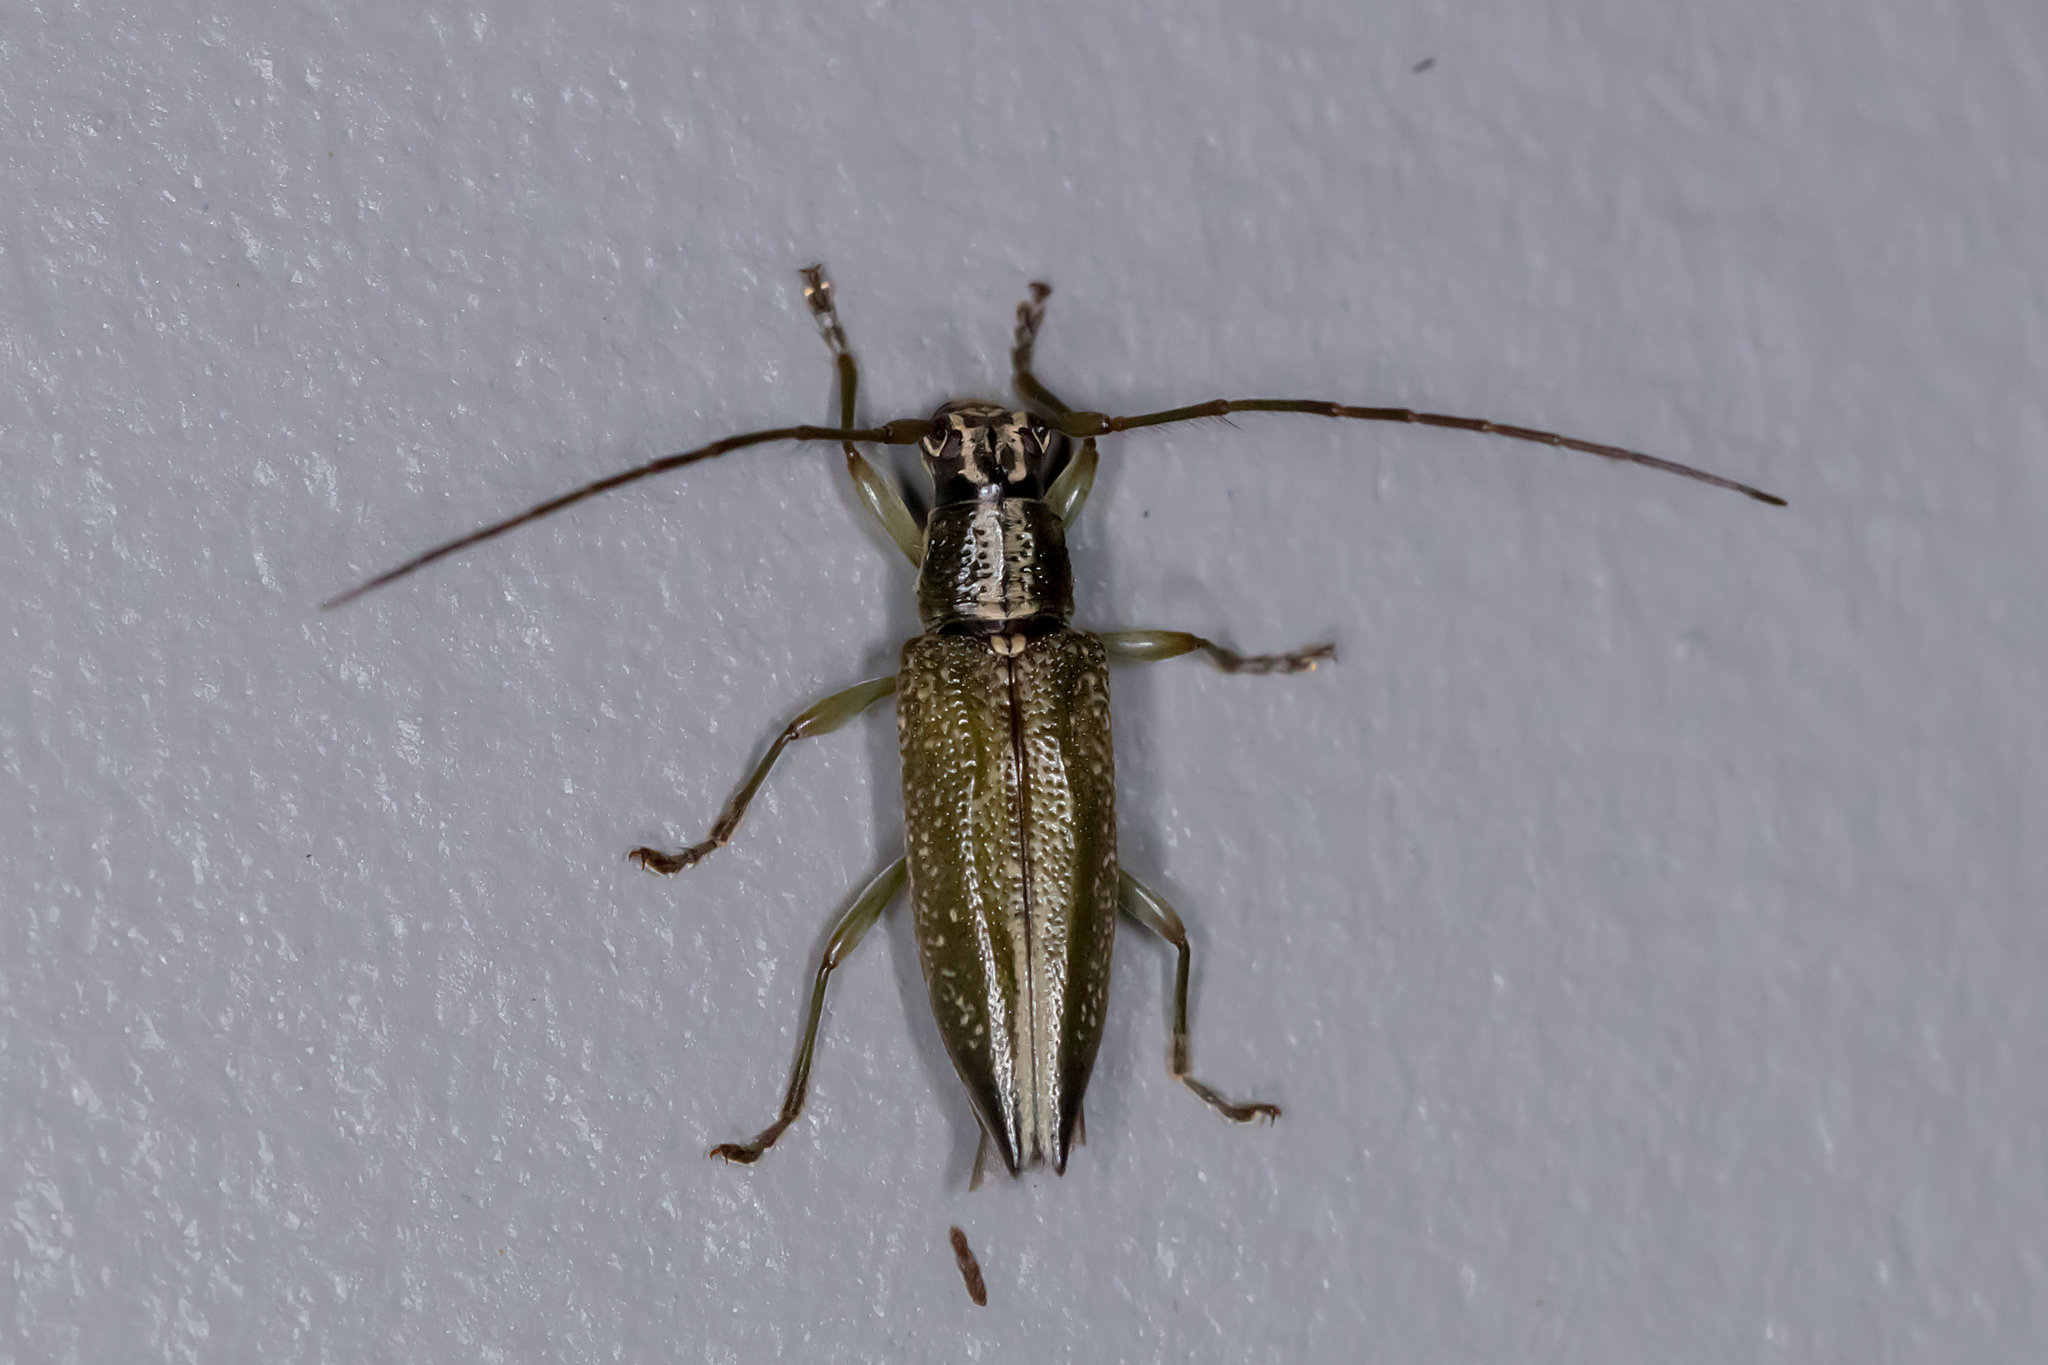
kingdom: Animalia
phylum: Arthropoda
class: Insecta
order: Coleoptera
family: Cerambycidae
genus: Temnosternus
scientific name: Temnosternus planiusculus
